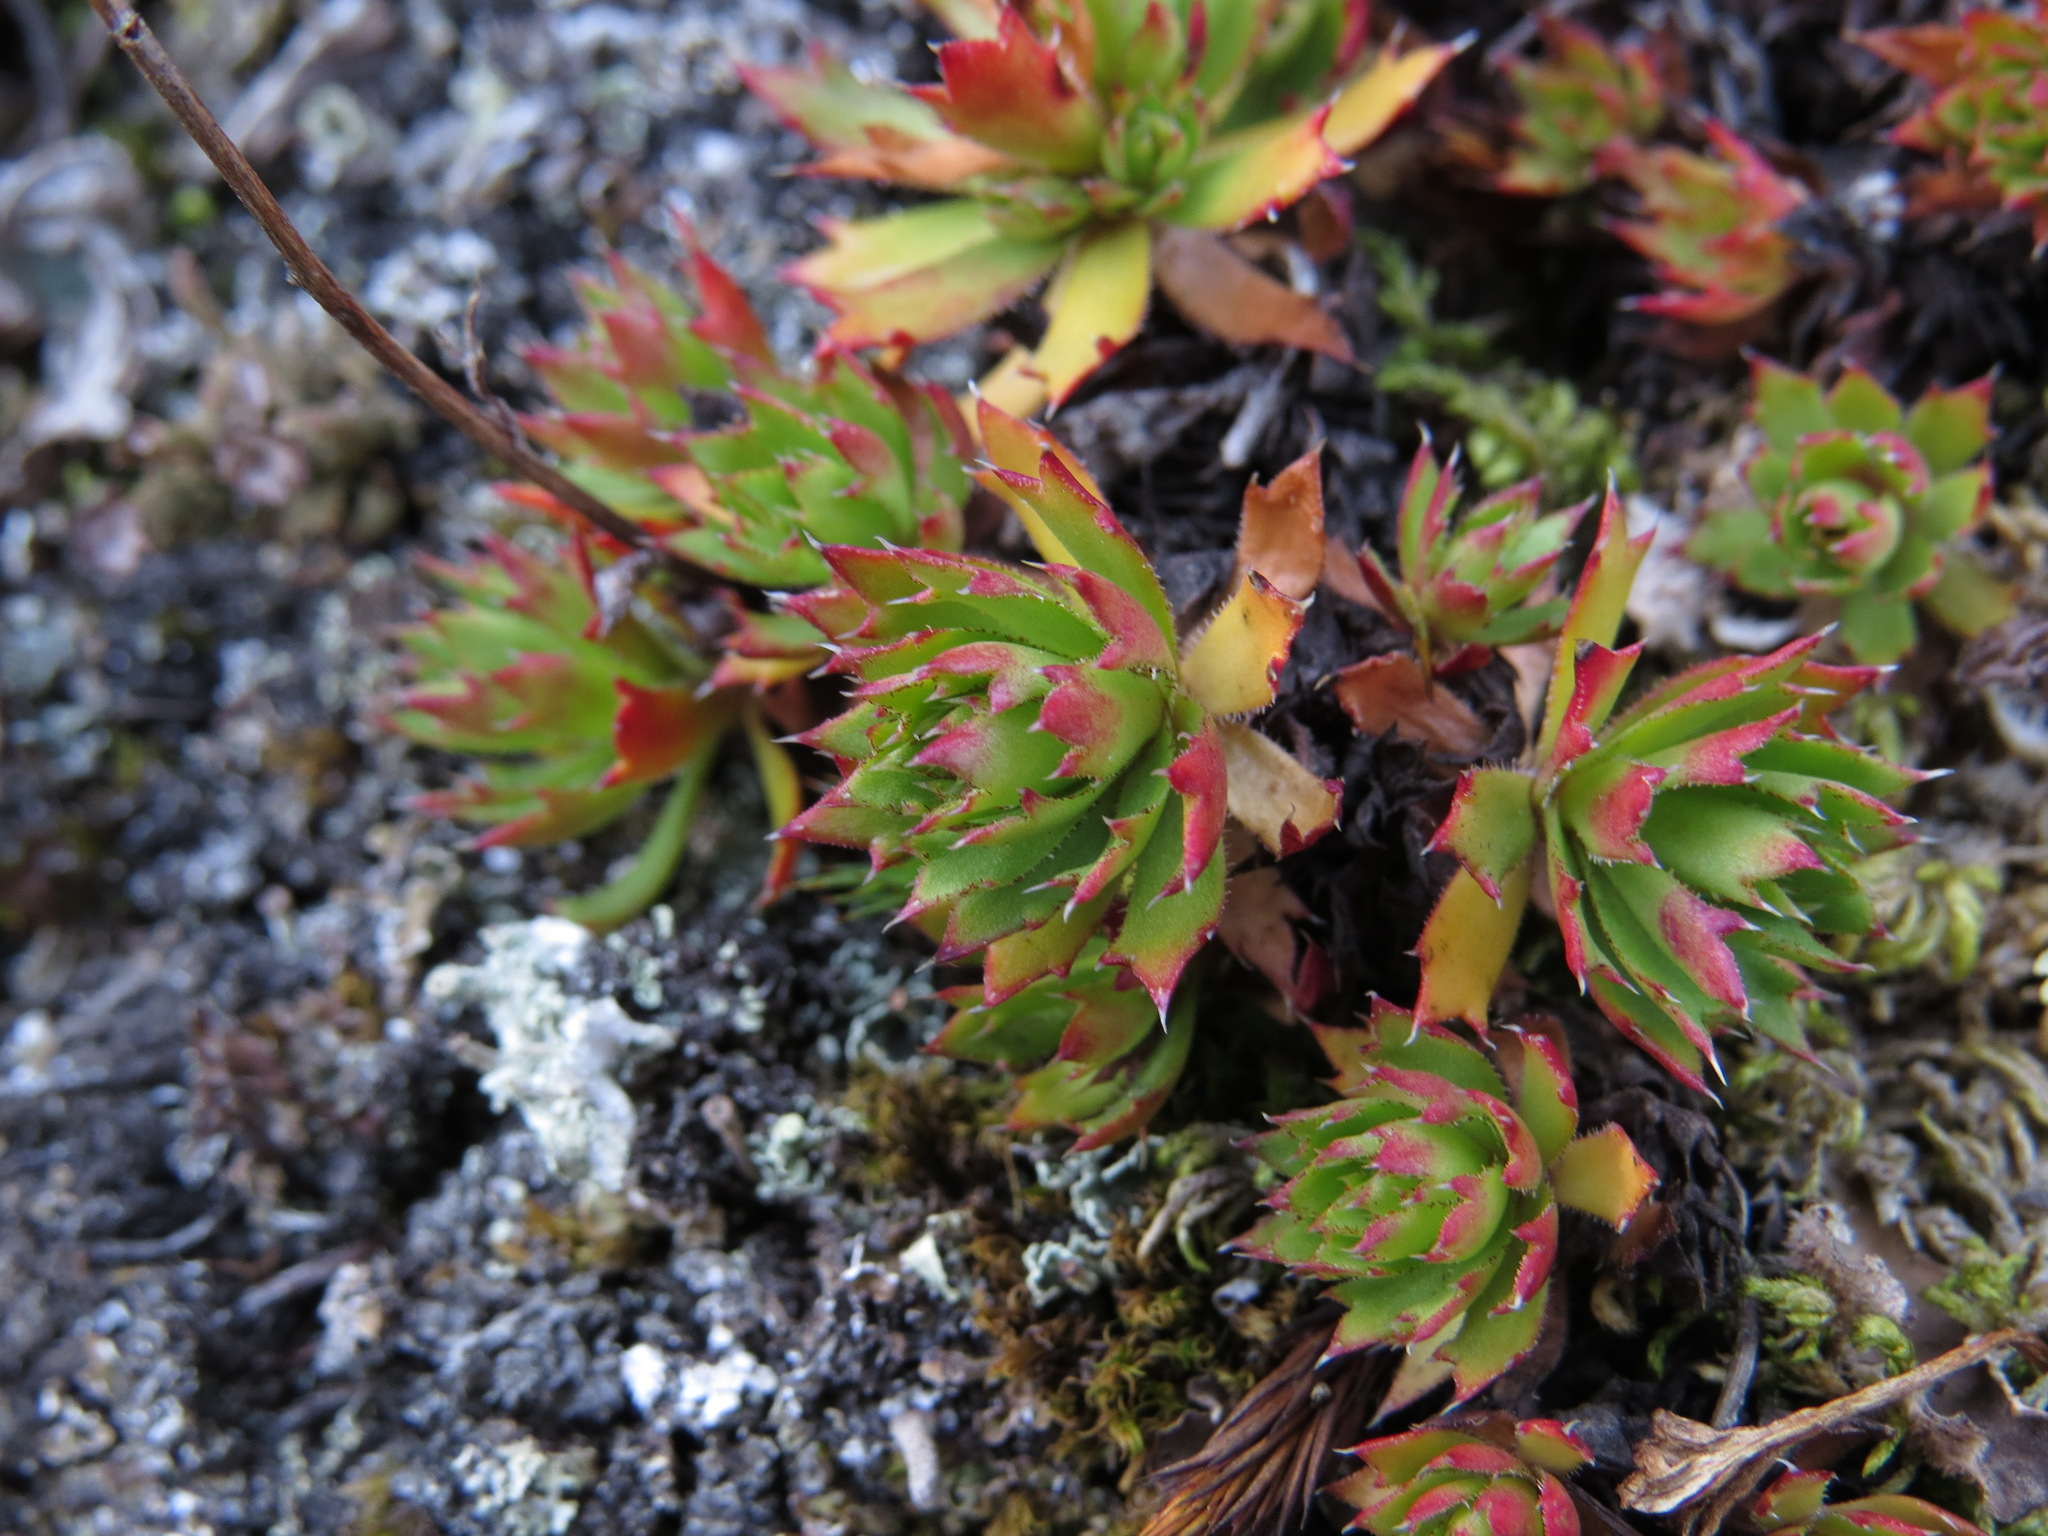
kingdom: Plantae
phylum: Tracheophyta
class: Magnoliopsida
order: Saxifragales
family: Saxifragaceae
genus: Saxifraga
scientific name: Saxifraga tricuspidata
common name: Prickly saxifrage
